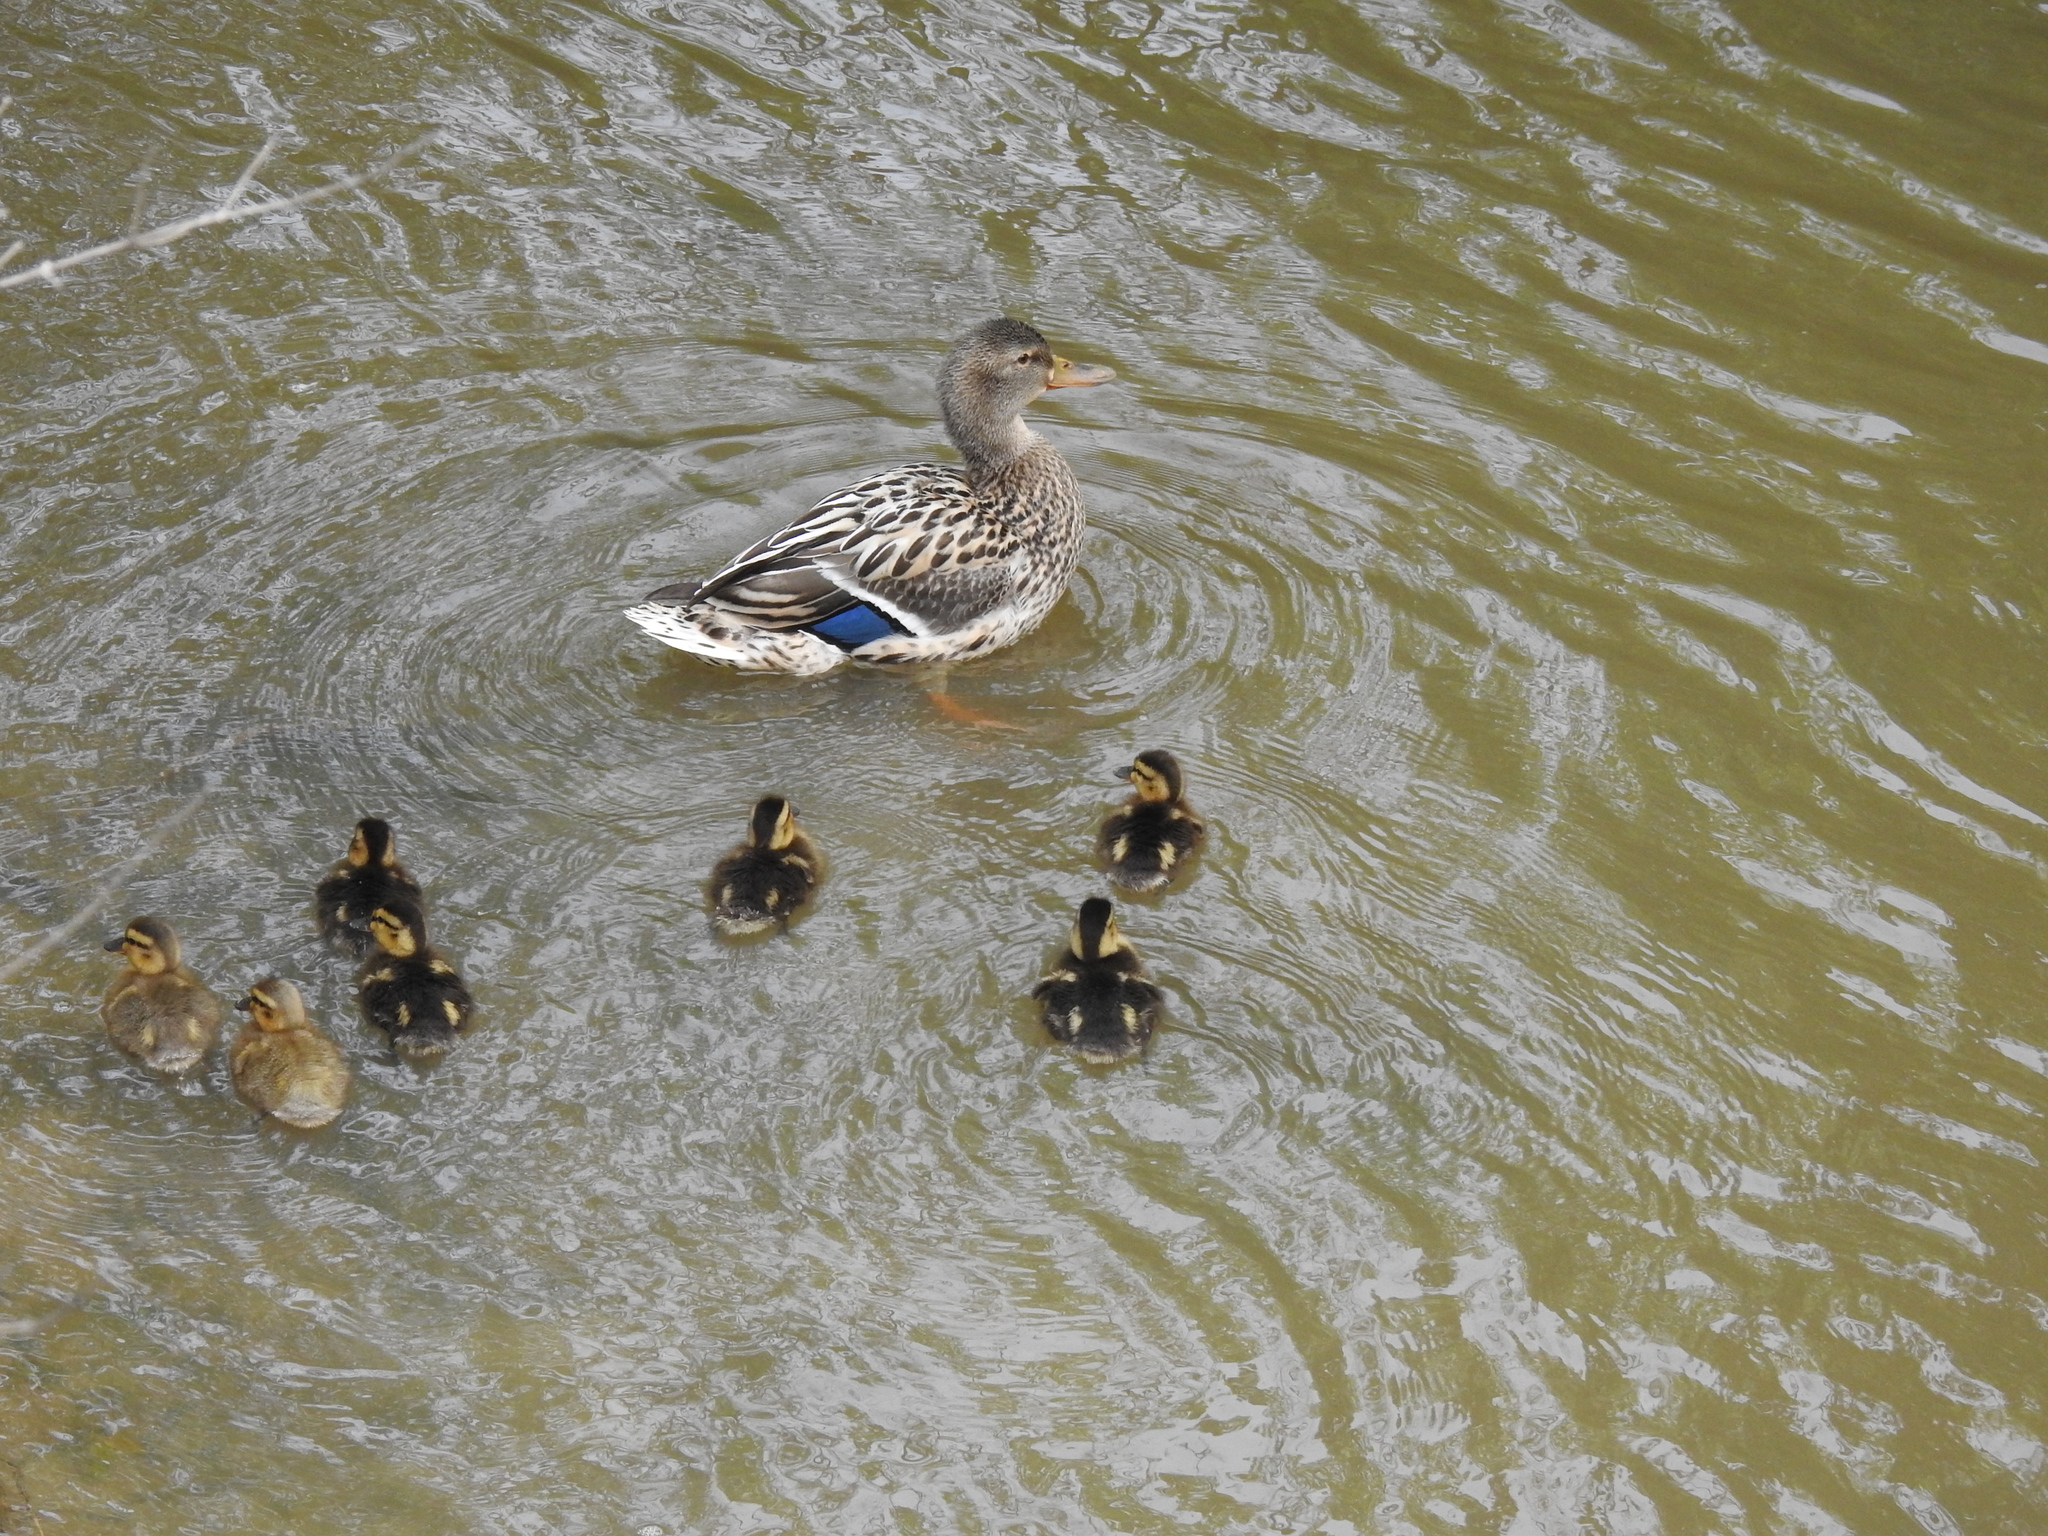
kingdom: Animalia
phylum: Chordata
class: Aves
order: Anseriformes
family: Anatidae
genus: Anas
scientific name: Anas platyrhynchos
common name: Mallard
